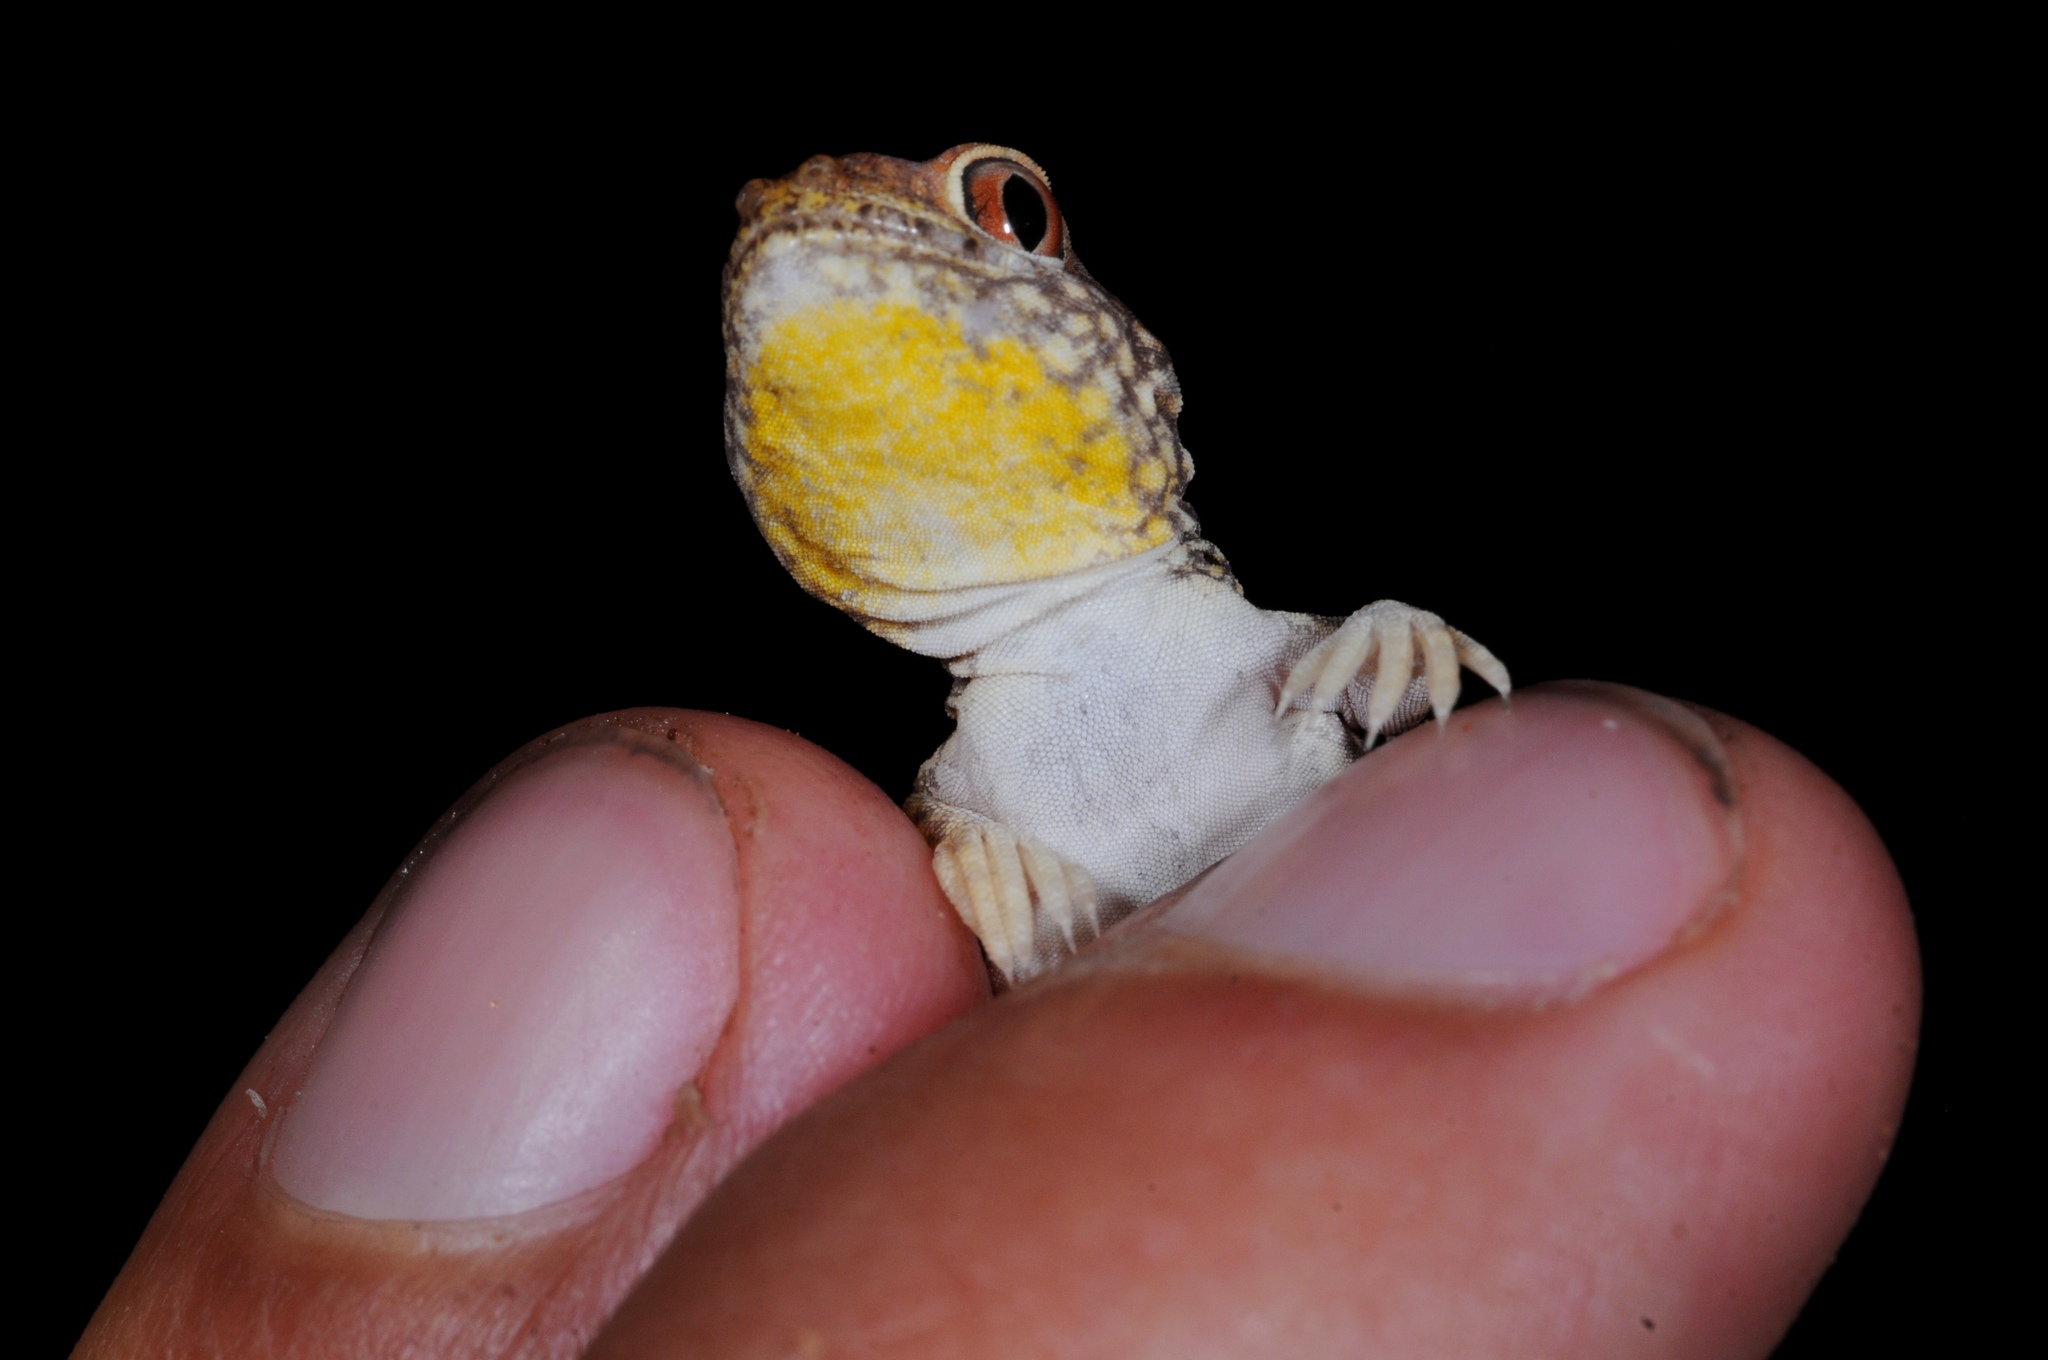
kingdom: Animalia
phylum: Chordata
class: Squamata
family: Gekkonidae
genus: Ptenopus
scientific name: Ptenopus kochi
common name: Koch's chirping gecko
